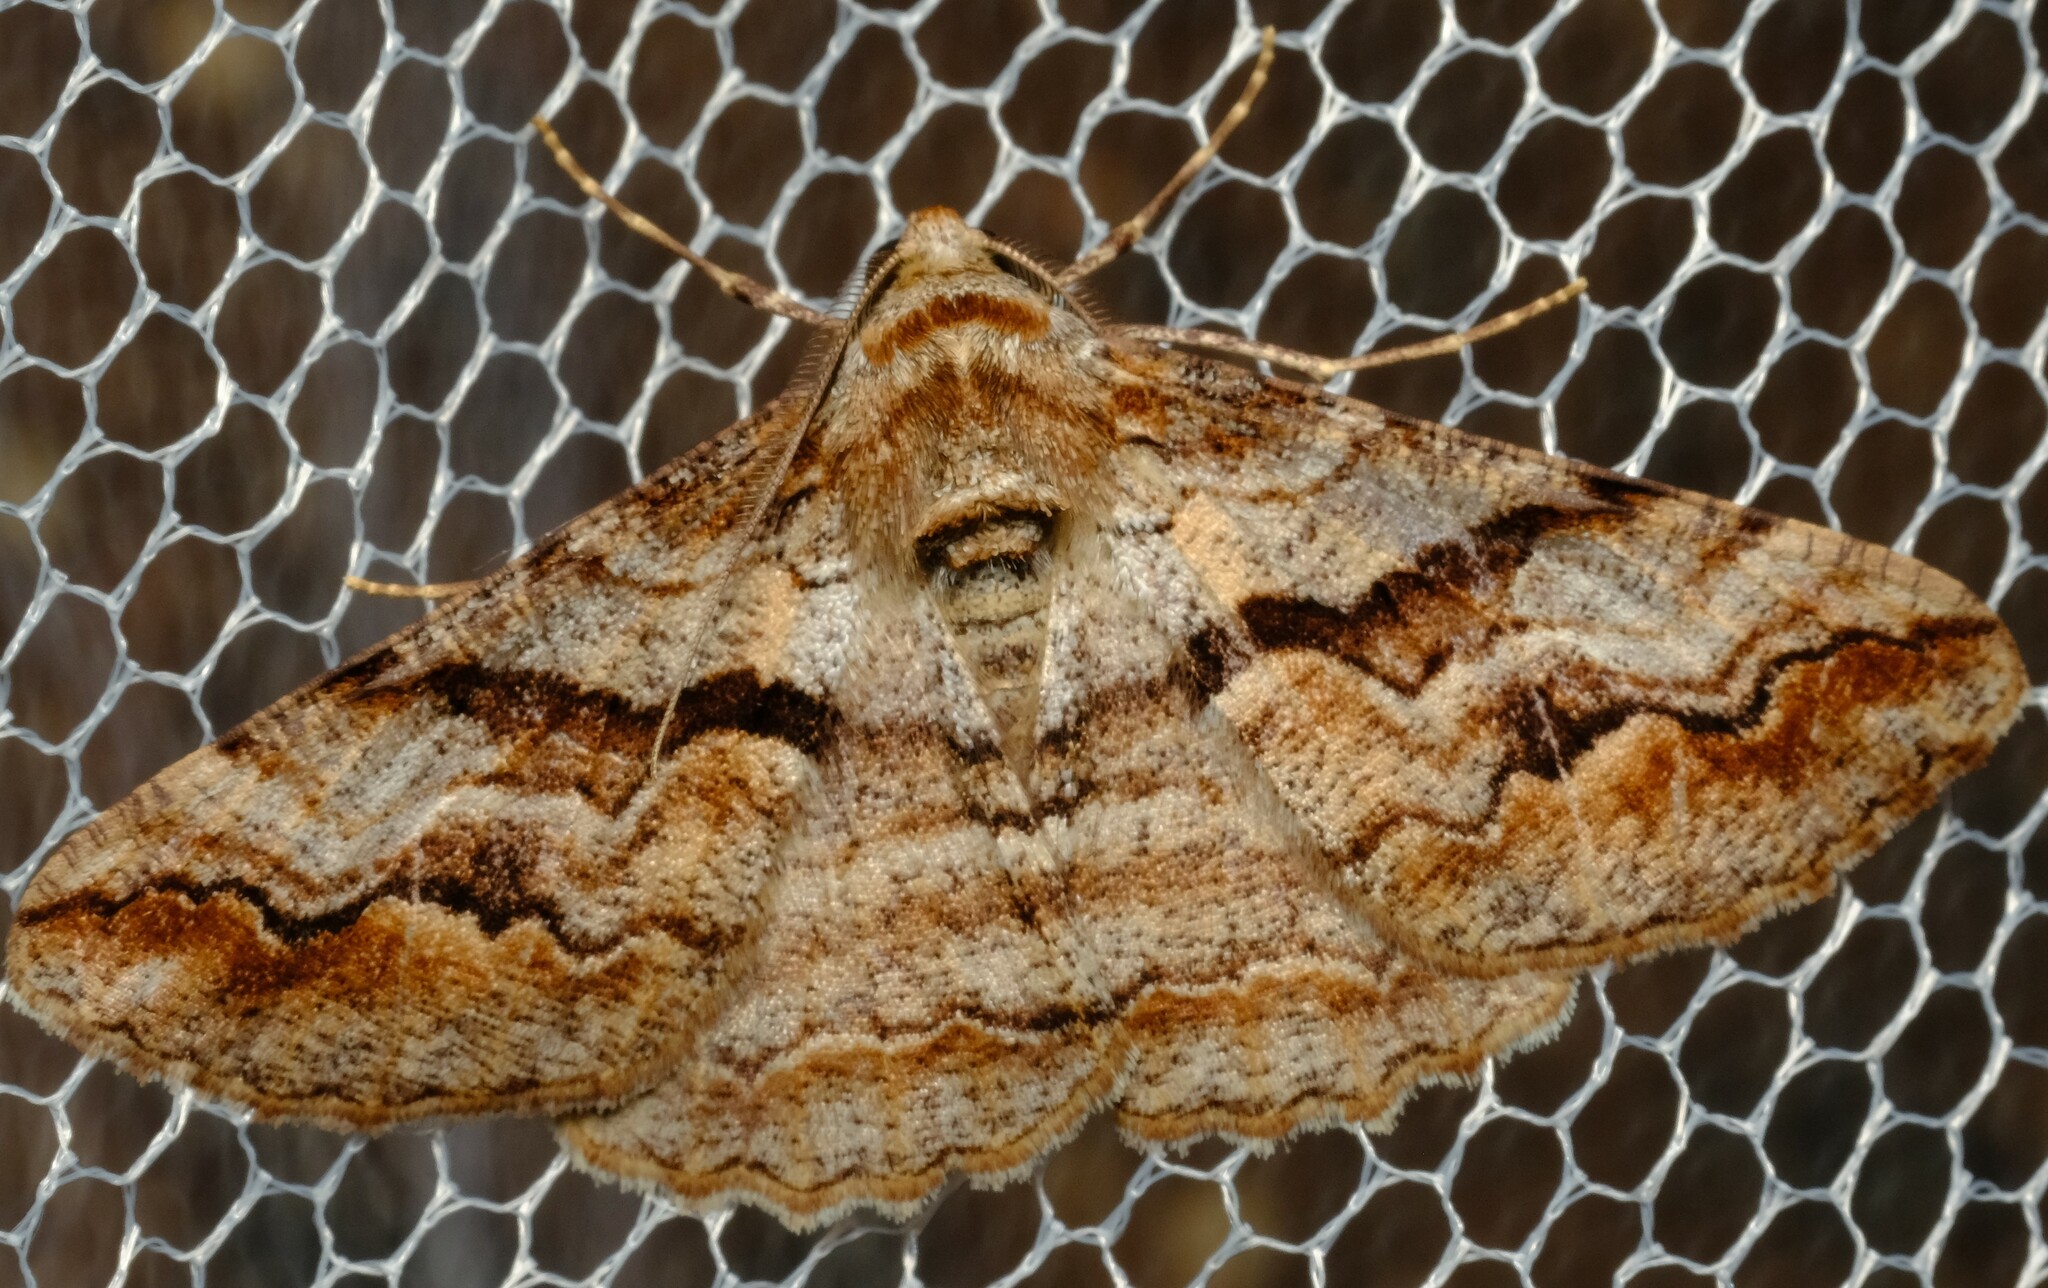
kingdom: Animalia
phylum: Arthropoda
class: Insecta
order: Lepidoptera
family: Geometridae
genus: Gastrinodes
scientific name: Gastrinodes bitaeniaria
